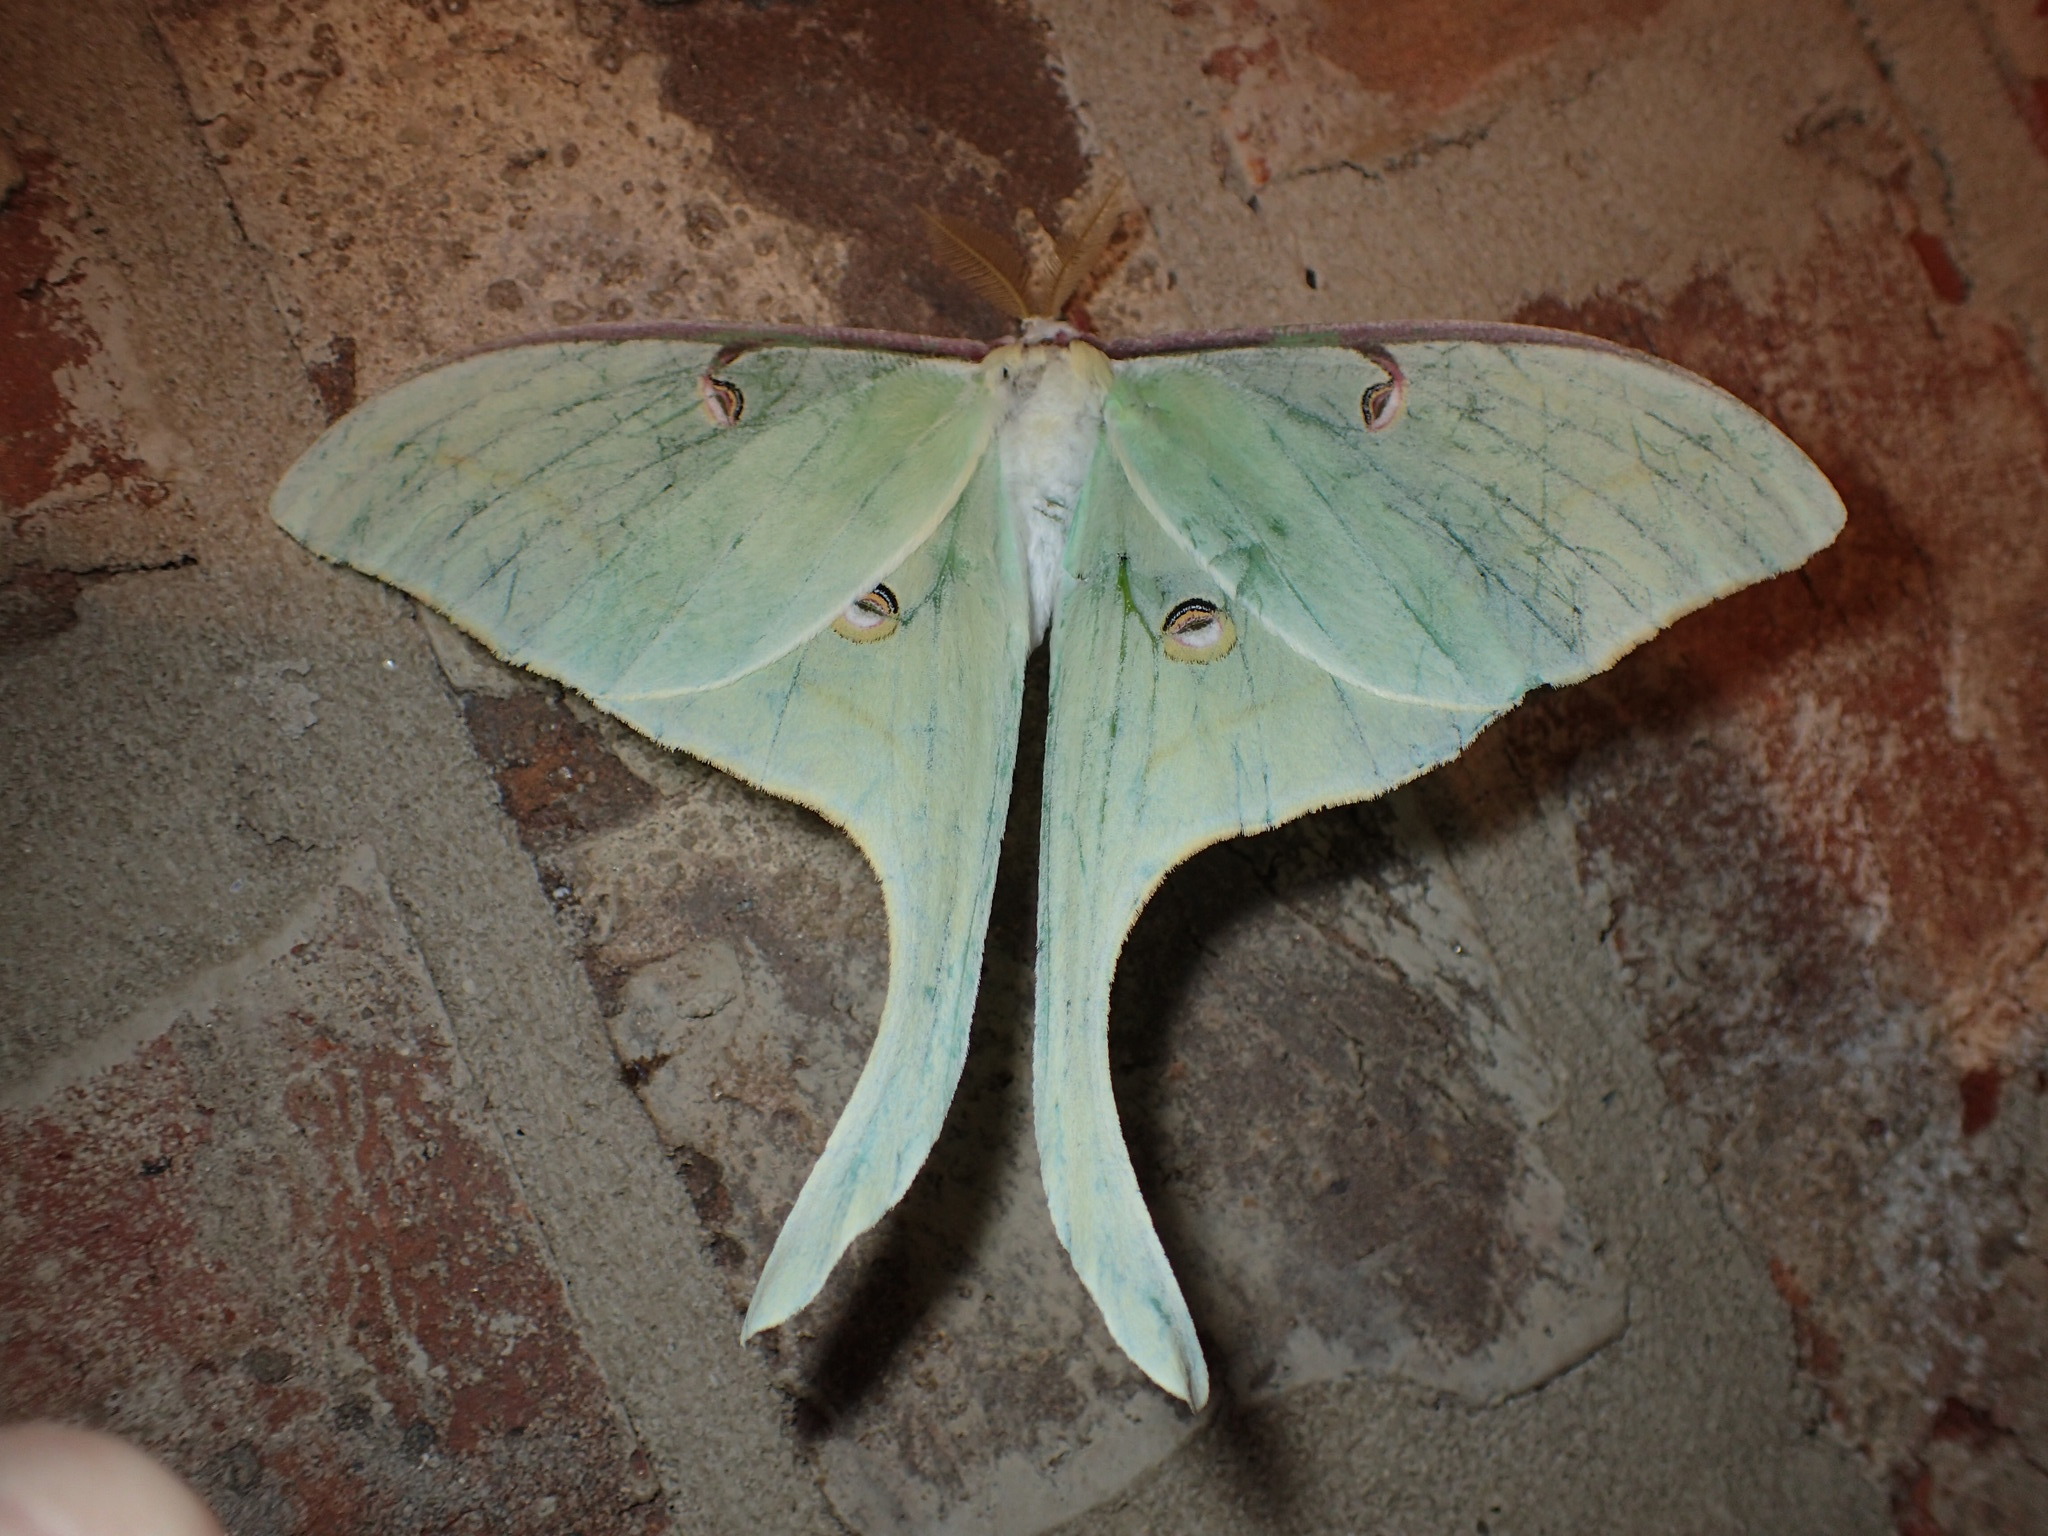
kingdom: Animalia
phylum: Arthropoda
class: Insecta
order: Lepidoptera
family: Saturniidae
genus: Actias
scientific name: Actias luna
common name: Luna moth
